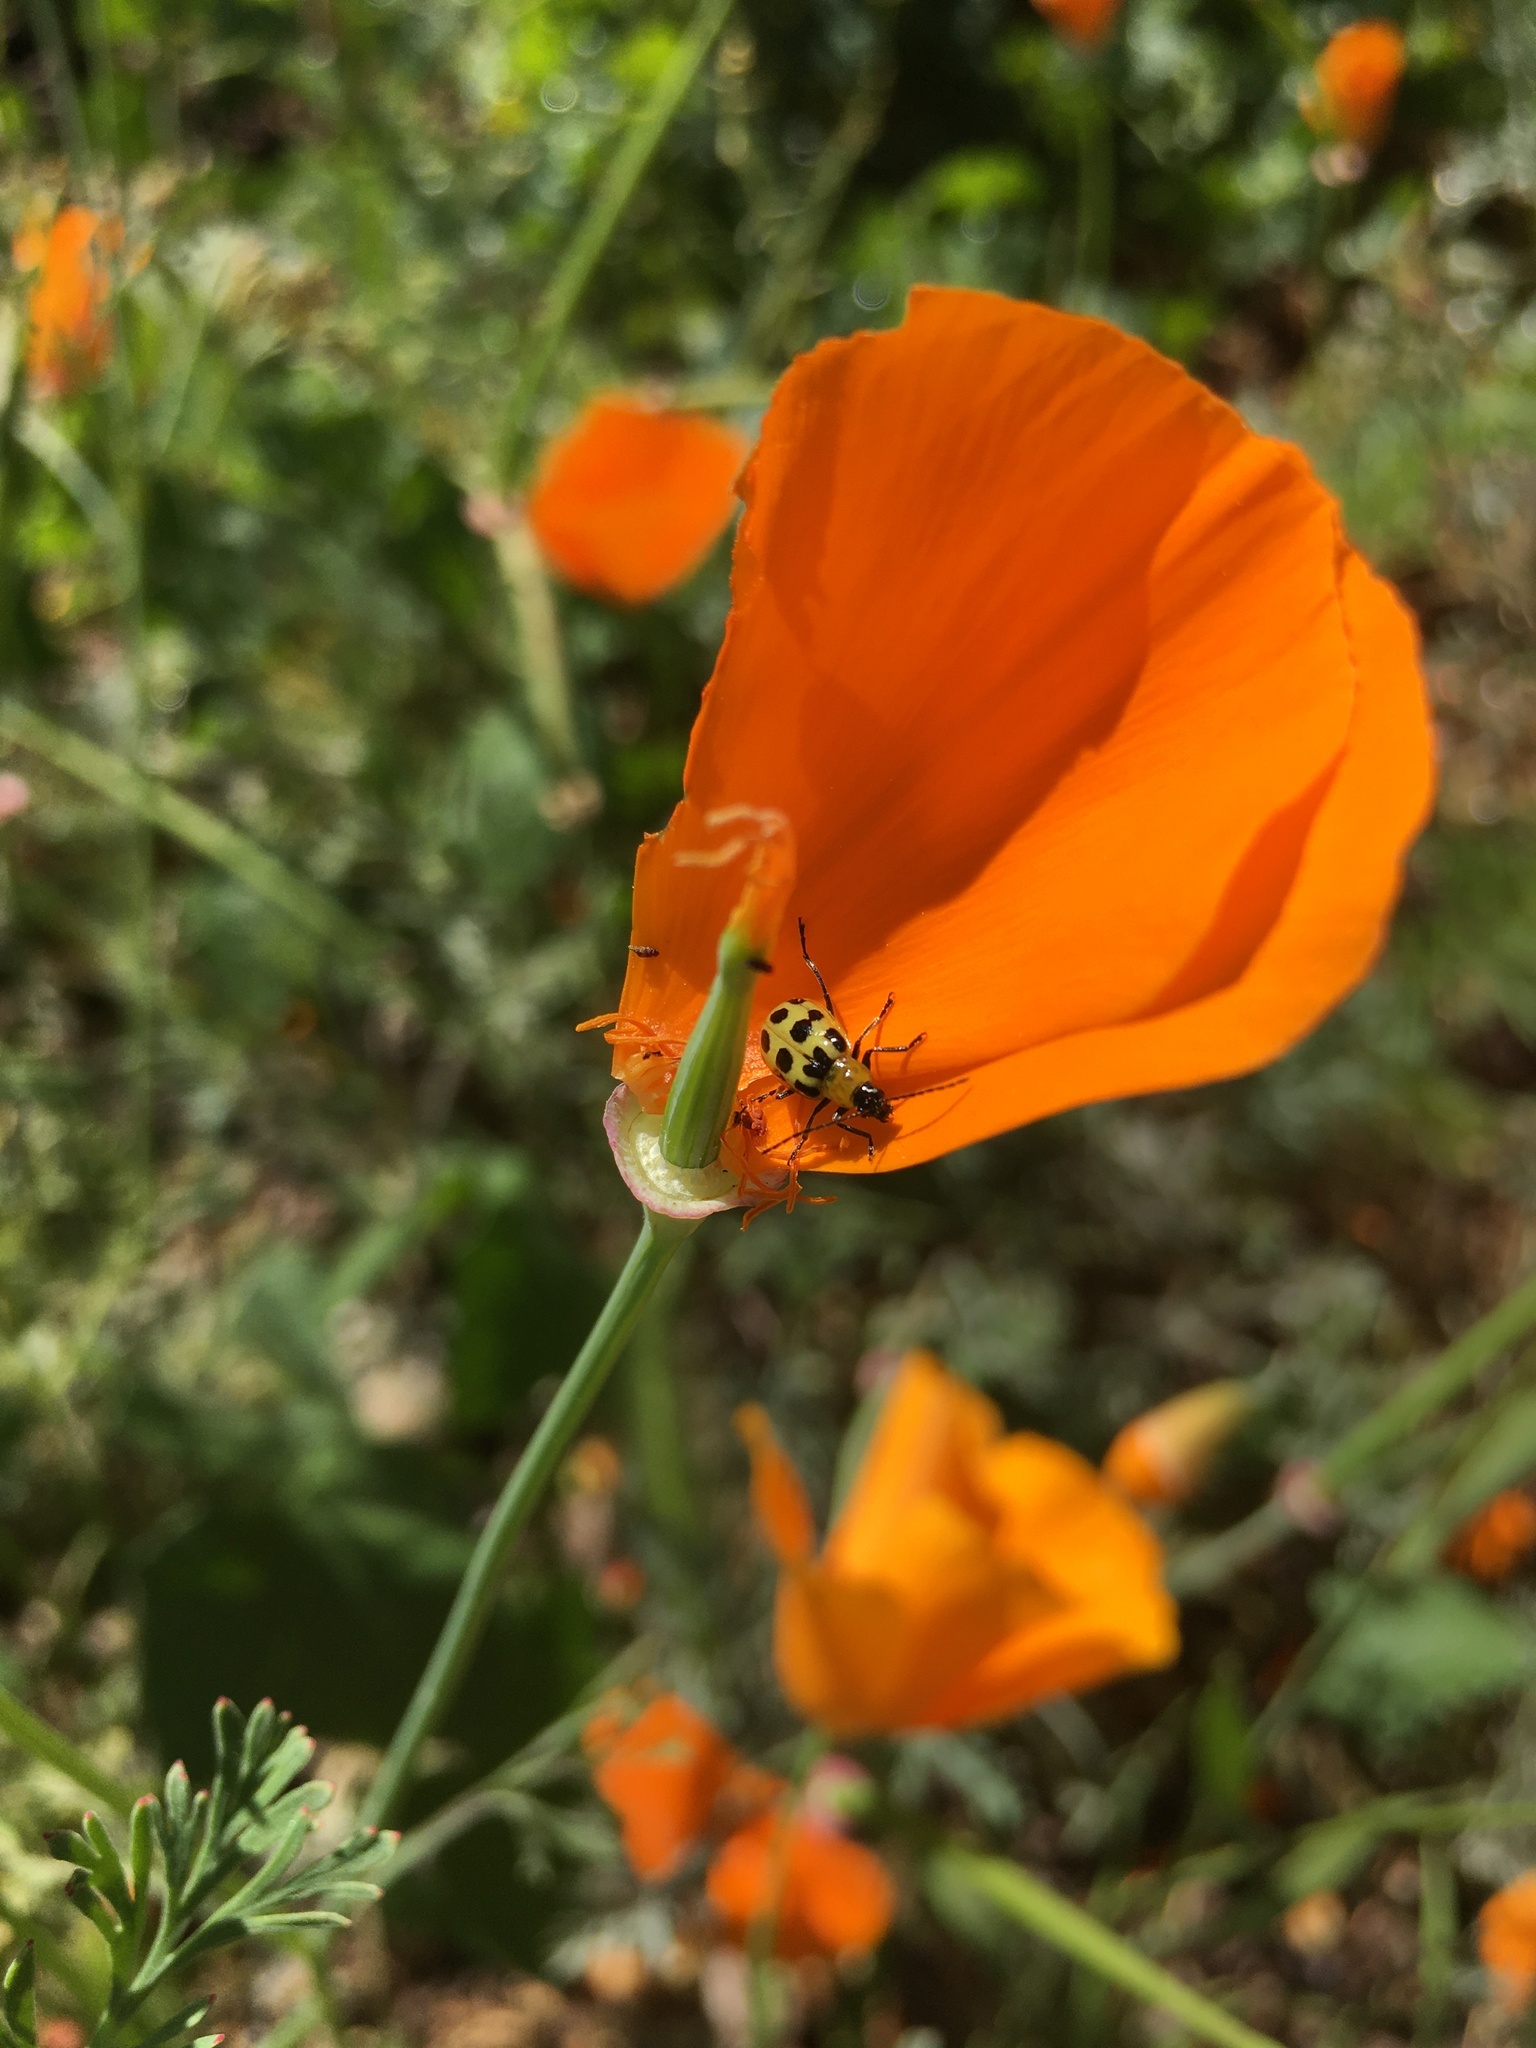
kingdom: Animalia
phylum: Arthropoda
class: Insecta
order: Coleoptera
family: Chrysomelidae
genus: Diabrotica
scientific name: Diabrotica undecimpunctata
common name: Spotted cucumber beetle
